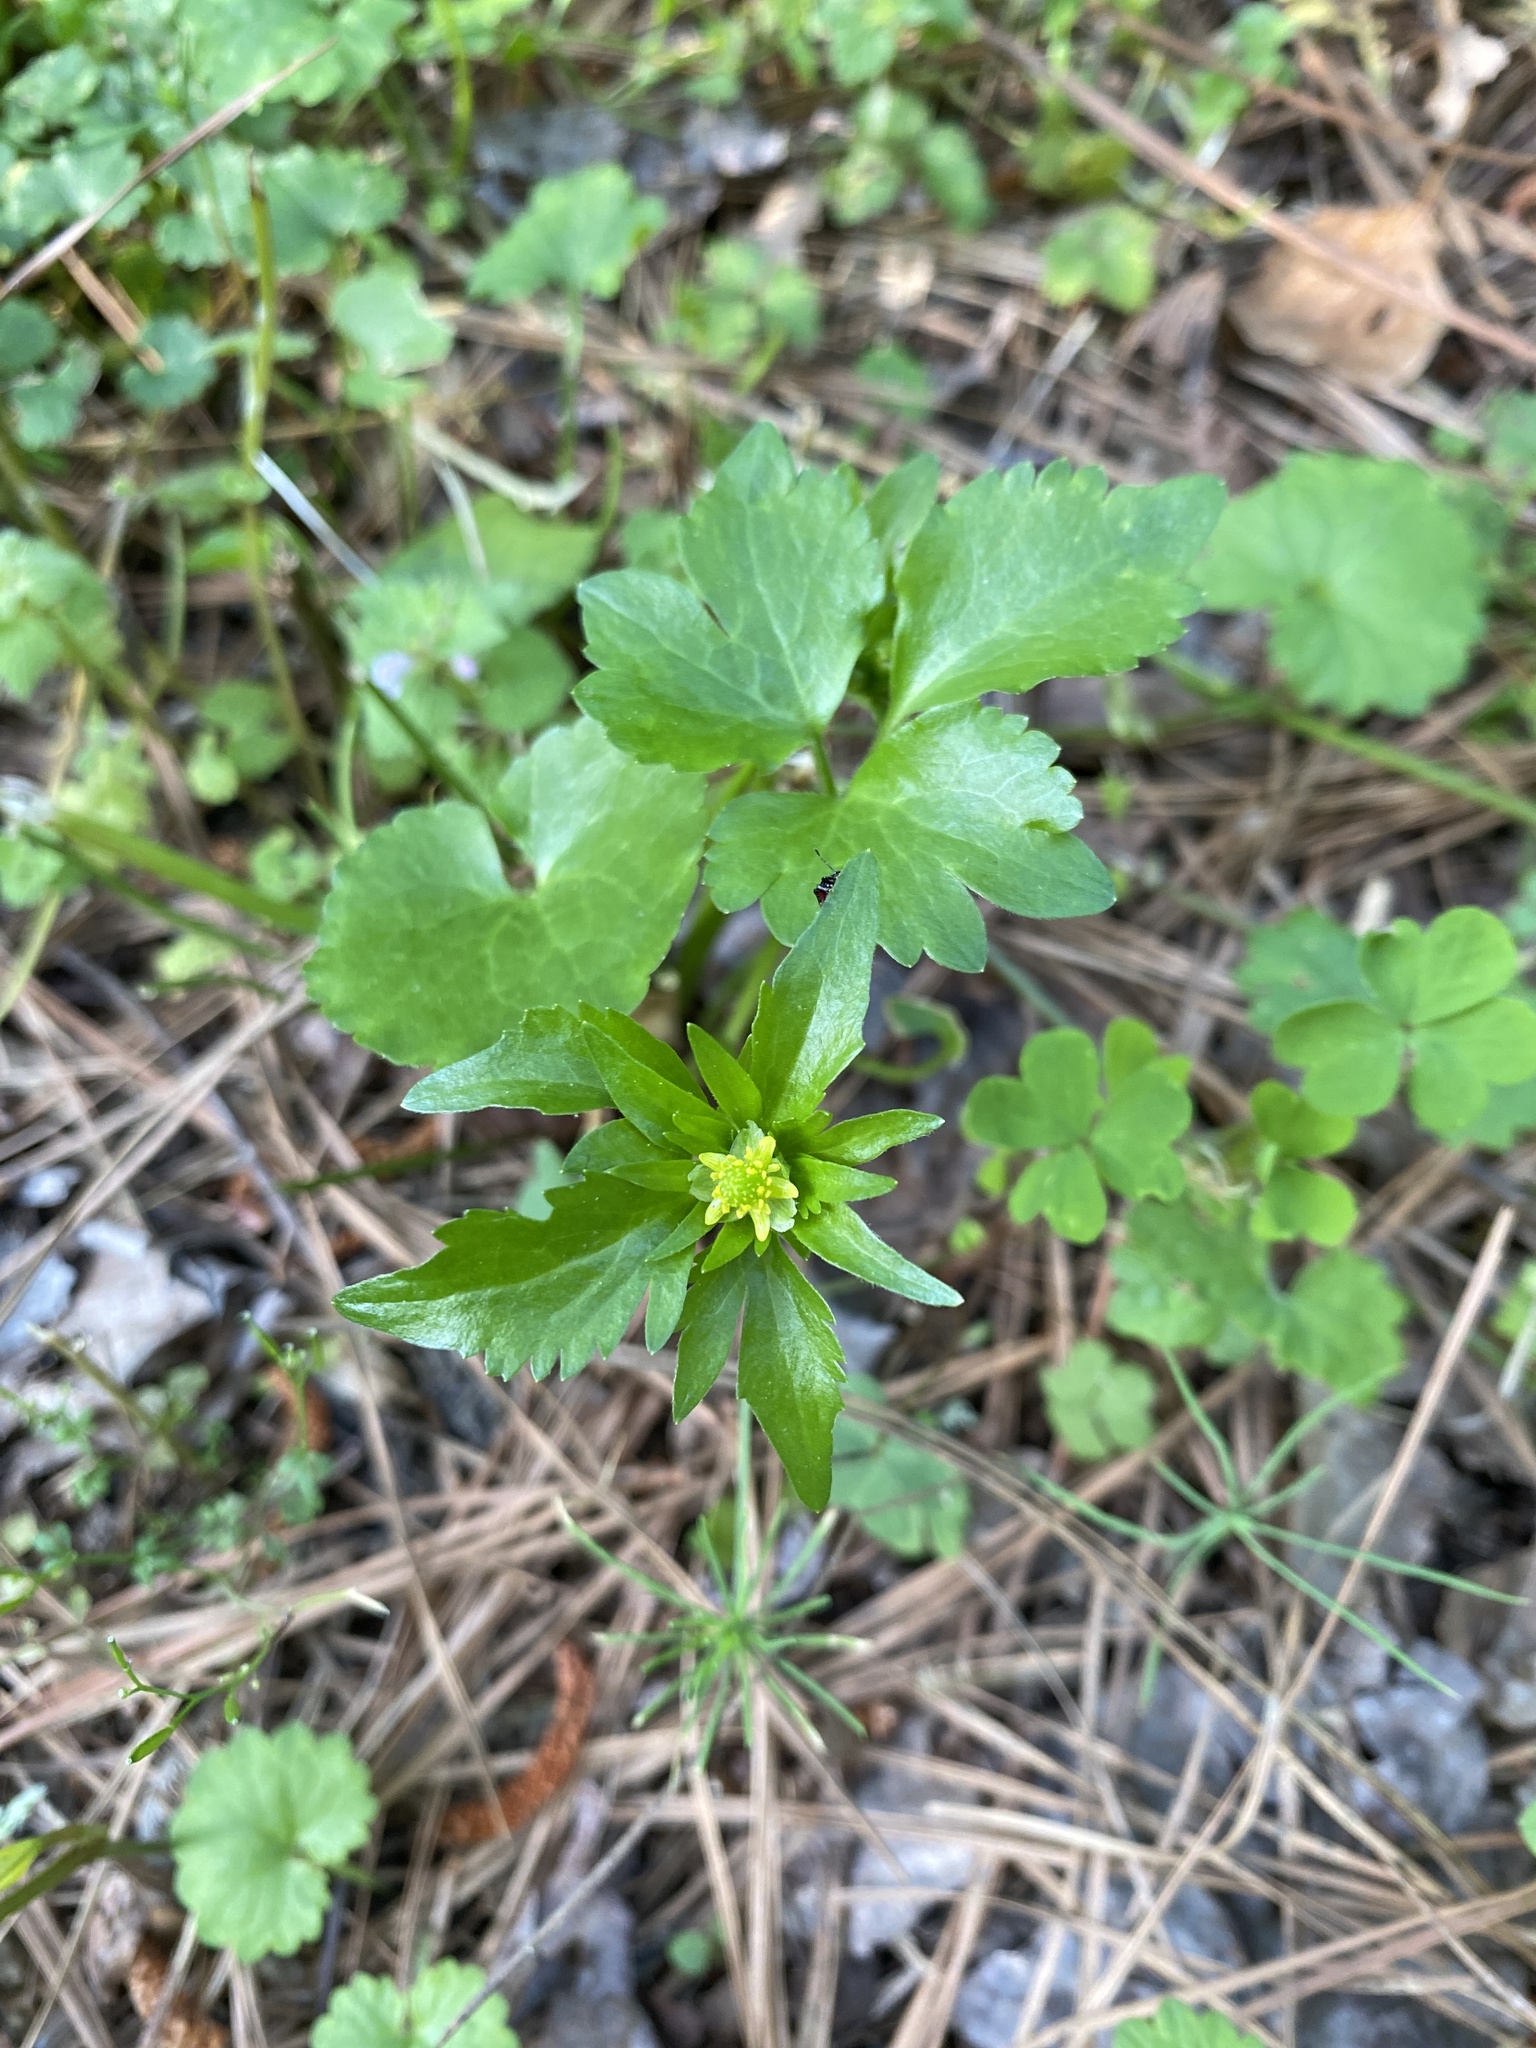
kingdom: Plantae
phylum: Tracheophyta
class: Magnoliopsida
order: Ranunculales
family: Ranunculaceae
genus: Ranunculus
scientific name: Ranunculus abortivus
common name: Early wood buttercup
